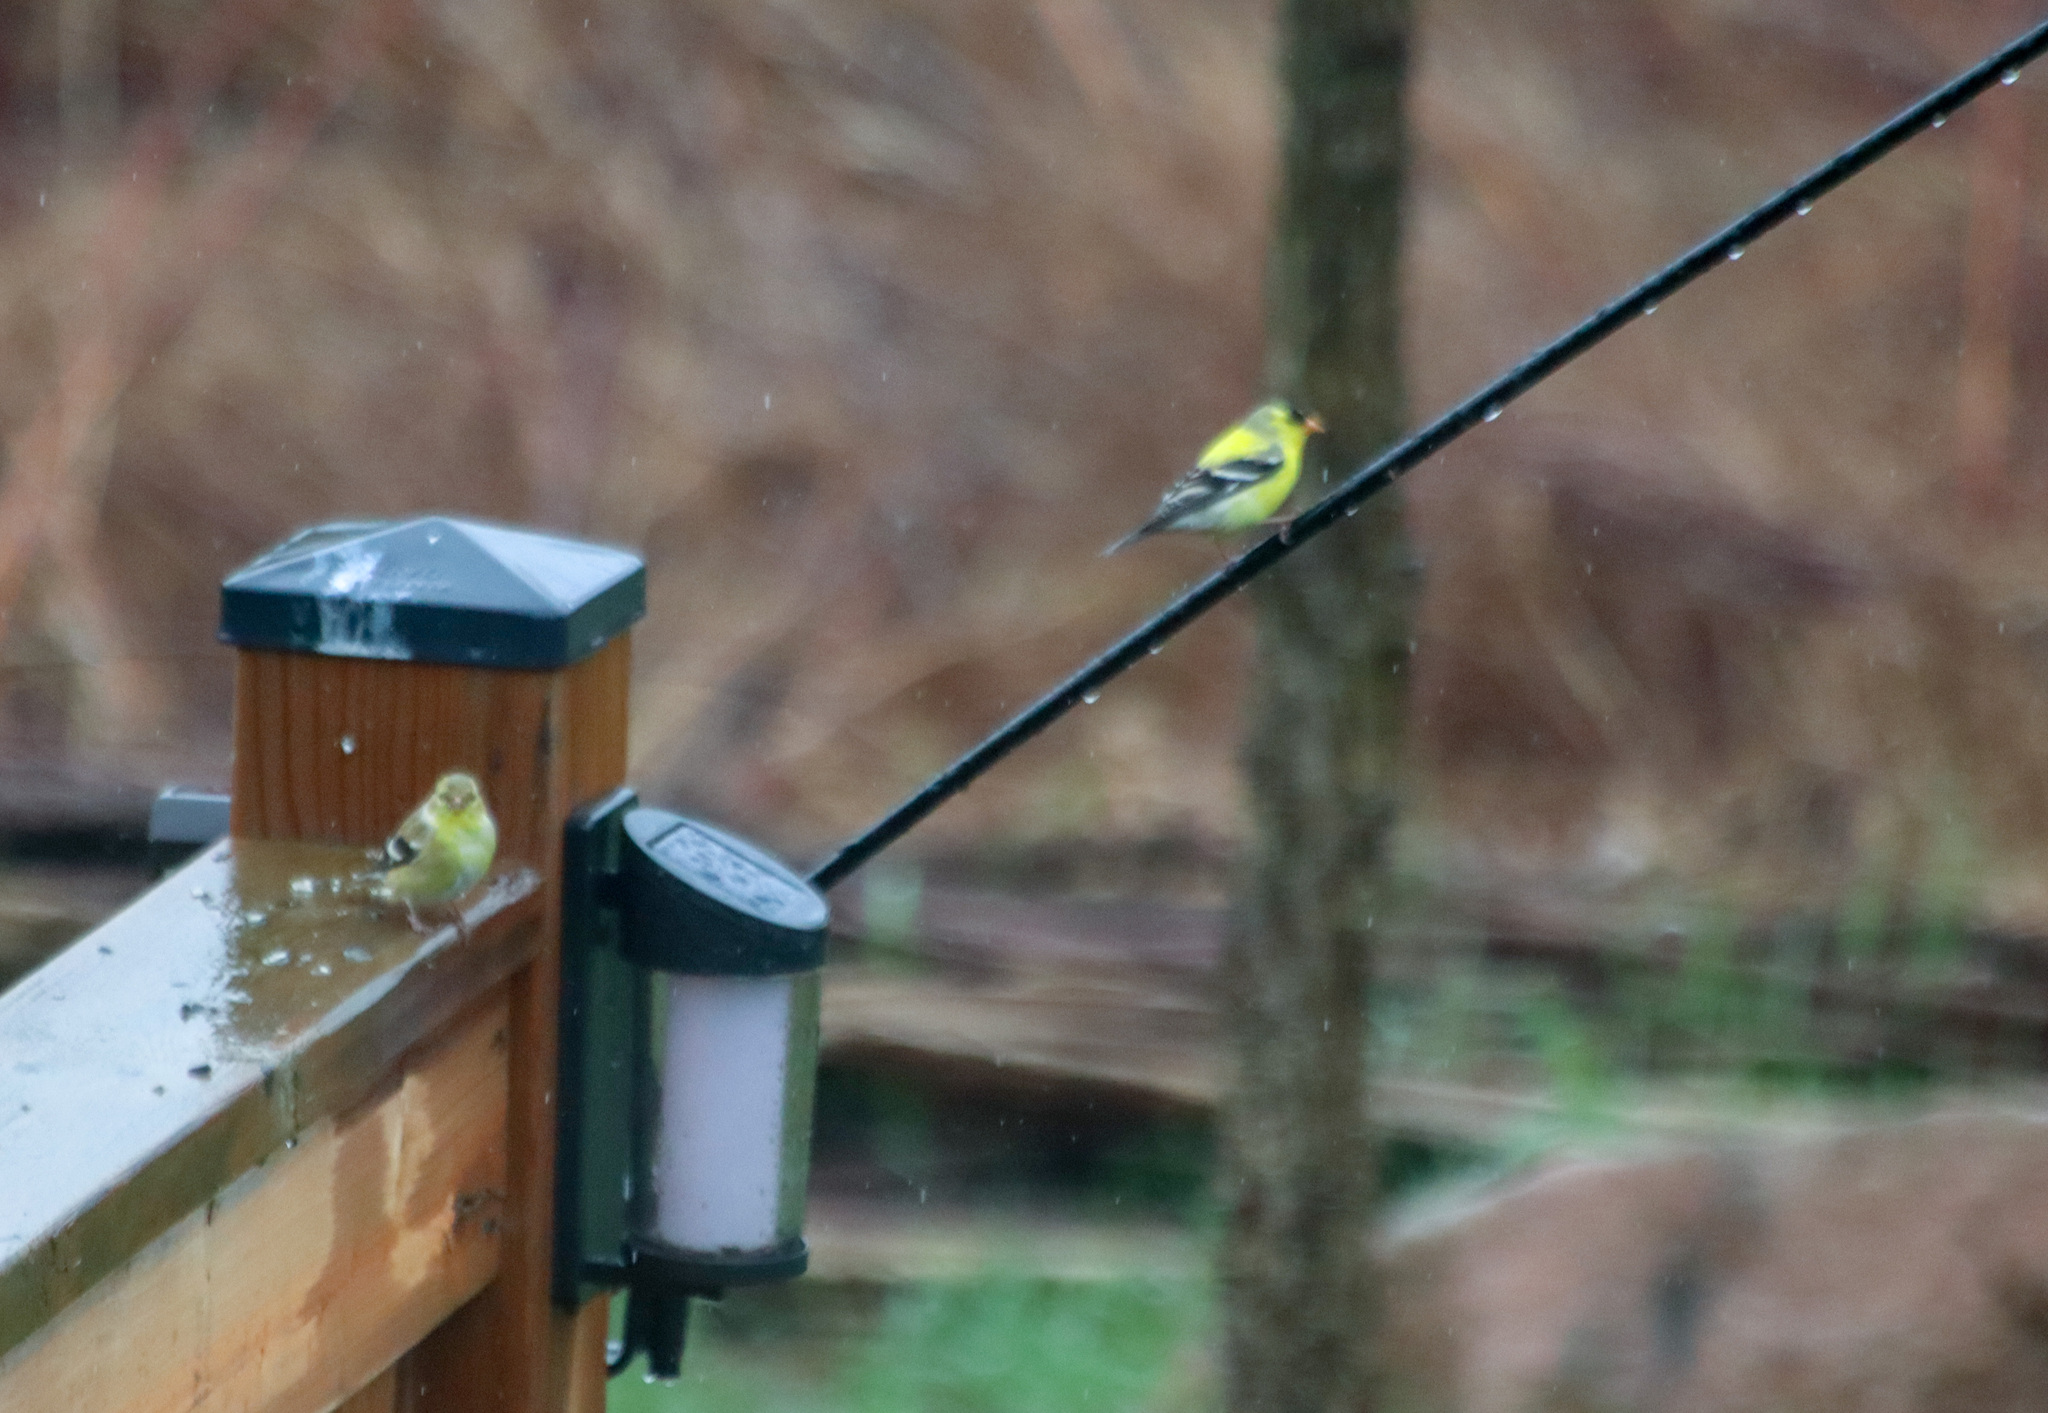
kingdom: Animalia
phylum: Chordata
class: Aves
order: Passeriformes
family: Fringillidae
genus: Spinus
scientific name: Spinus tristis
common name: American goldfinch
